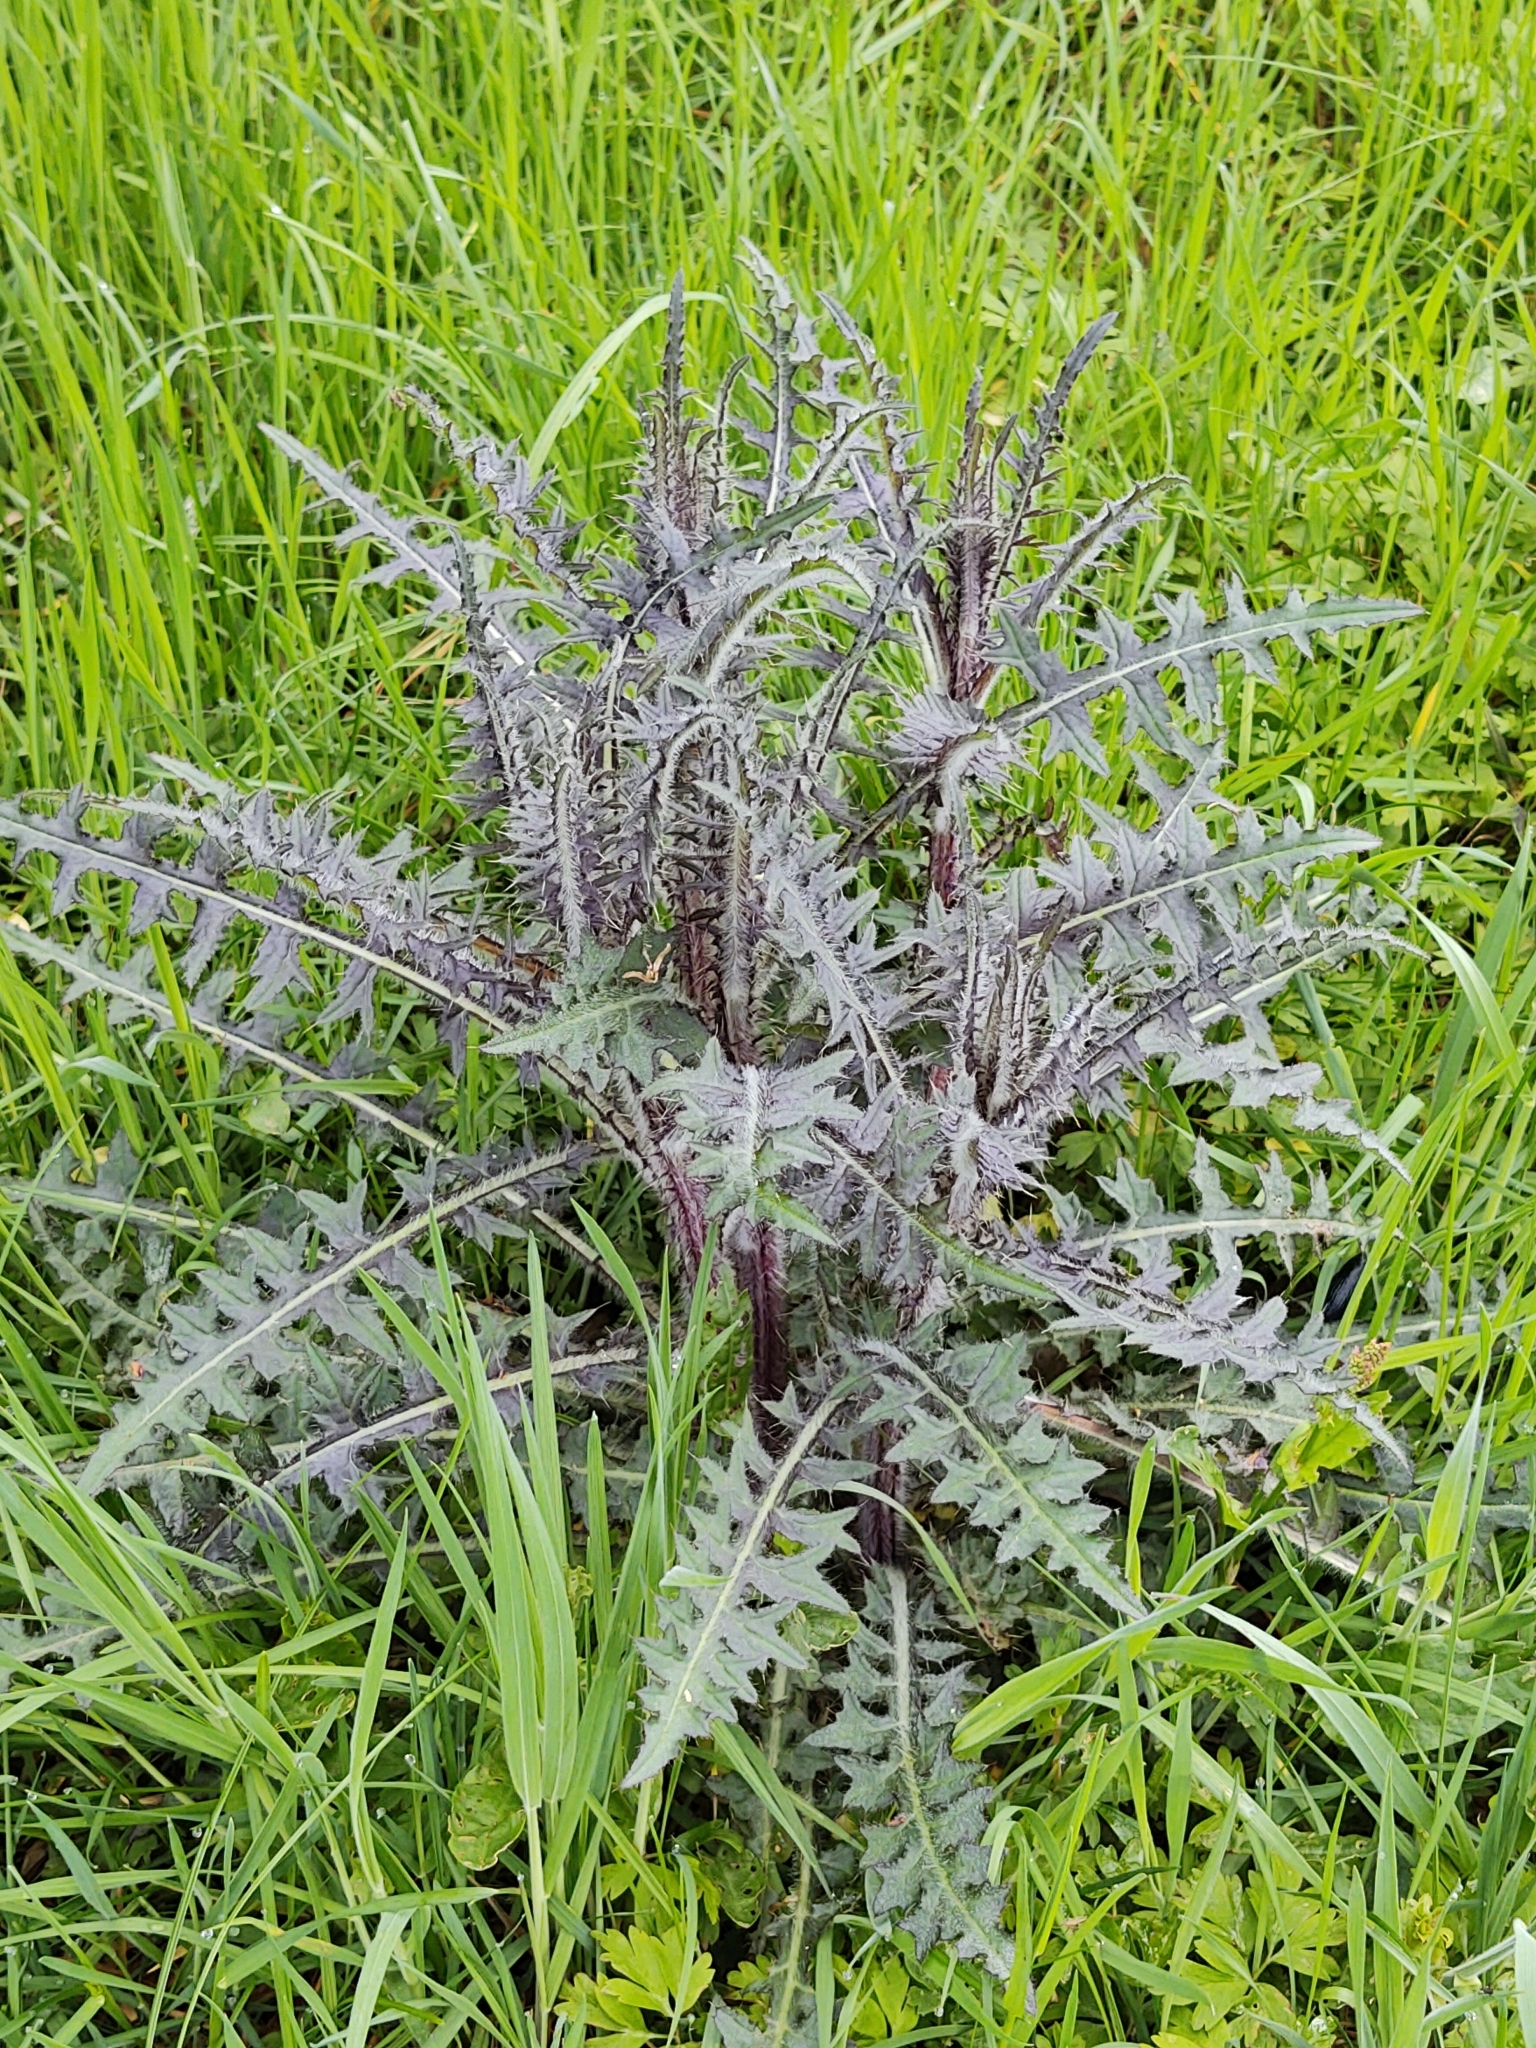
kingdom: Plantae
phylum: Tracheophyta
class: Magnoliopsida
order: Asterales
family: Asteraceae
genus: Cirsium
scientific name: Cirsium palustre
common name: Marsh thistle
